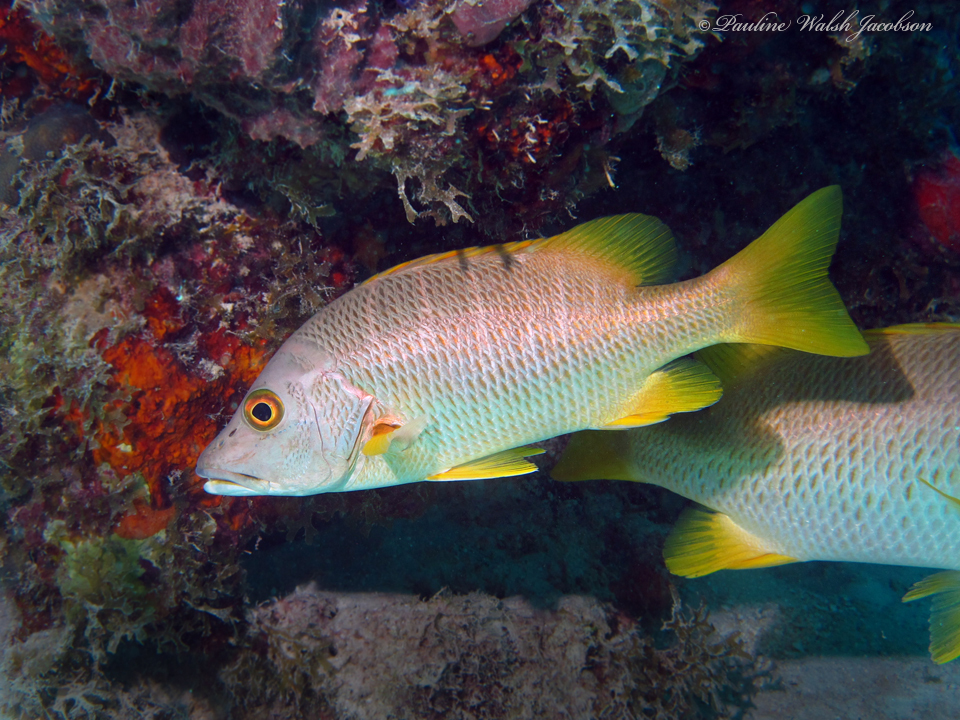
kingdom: Animalia
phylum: Chordata
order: Perciformes
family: Lutjanidae
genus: Lutjanus
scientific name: Lutjanus apodus
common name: Schoolmaster
